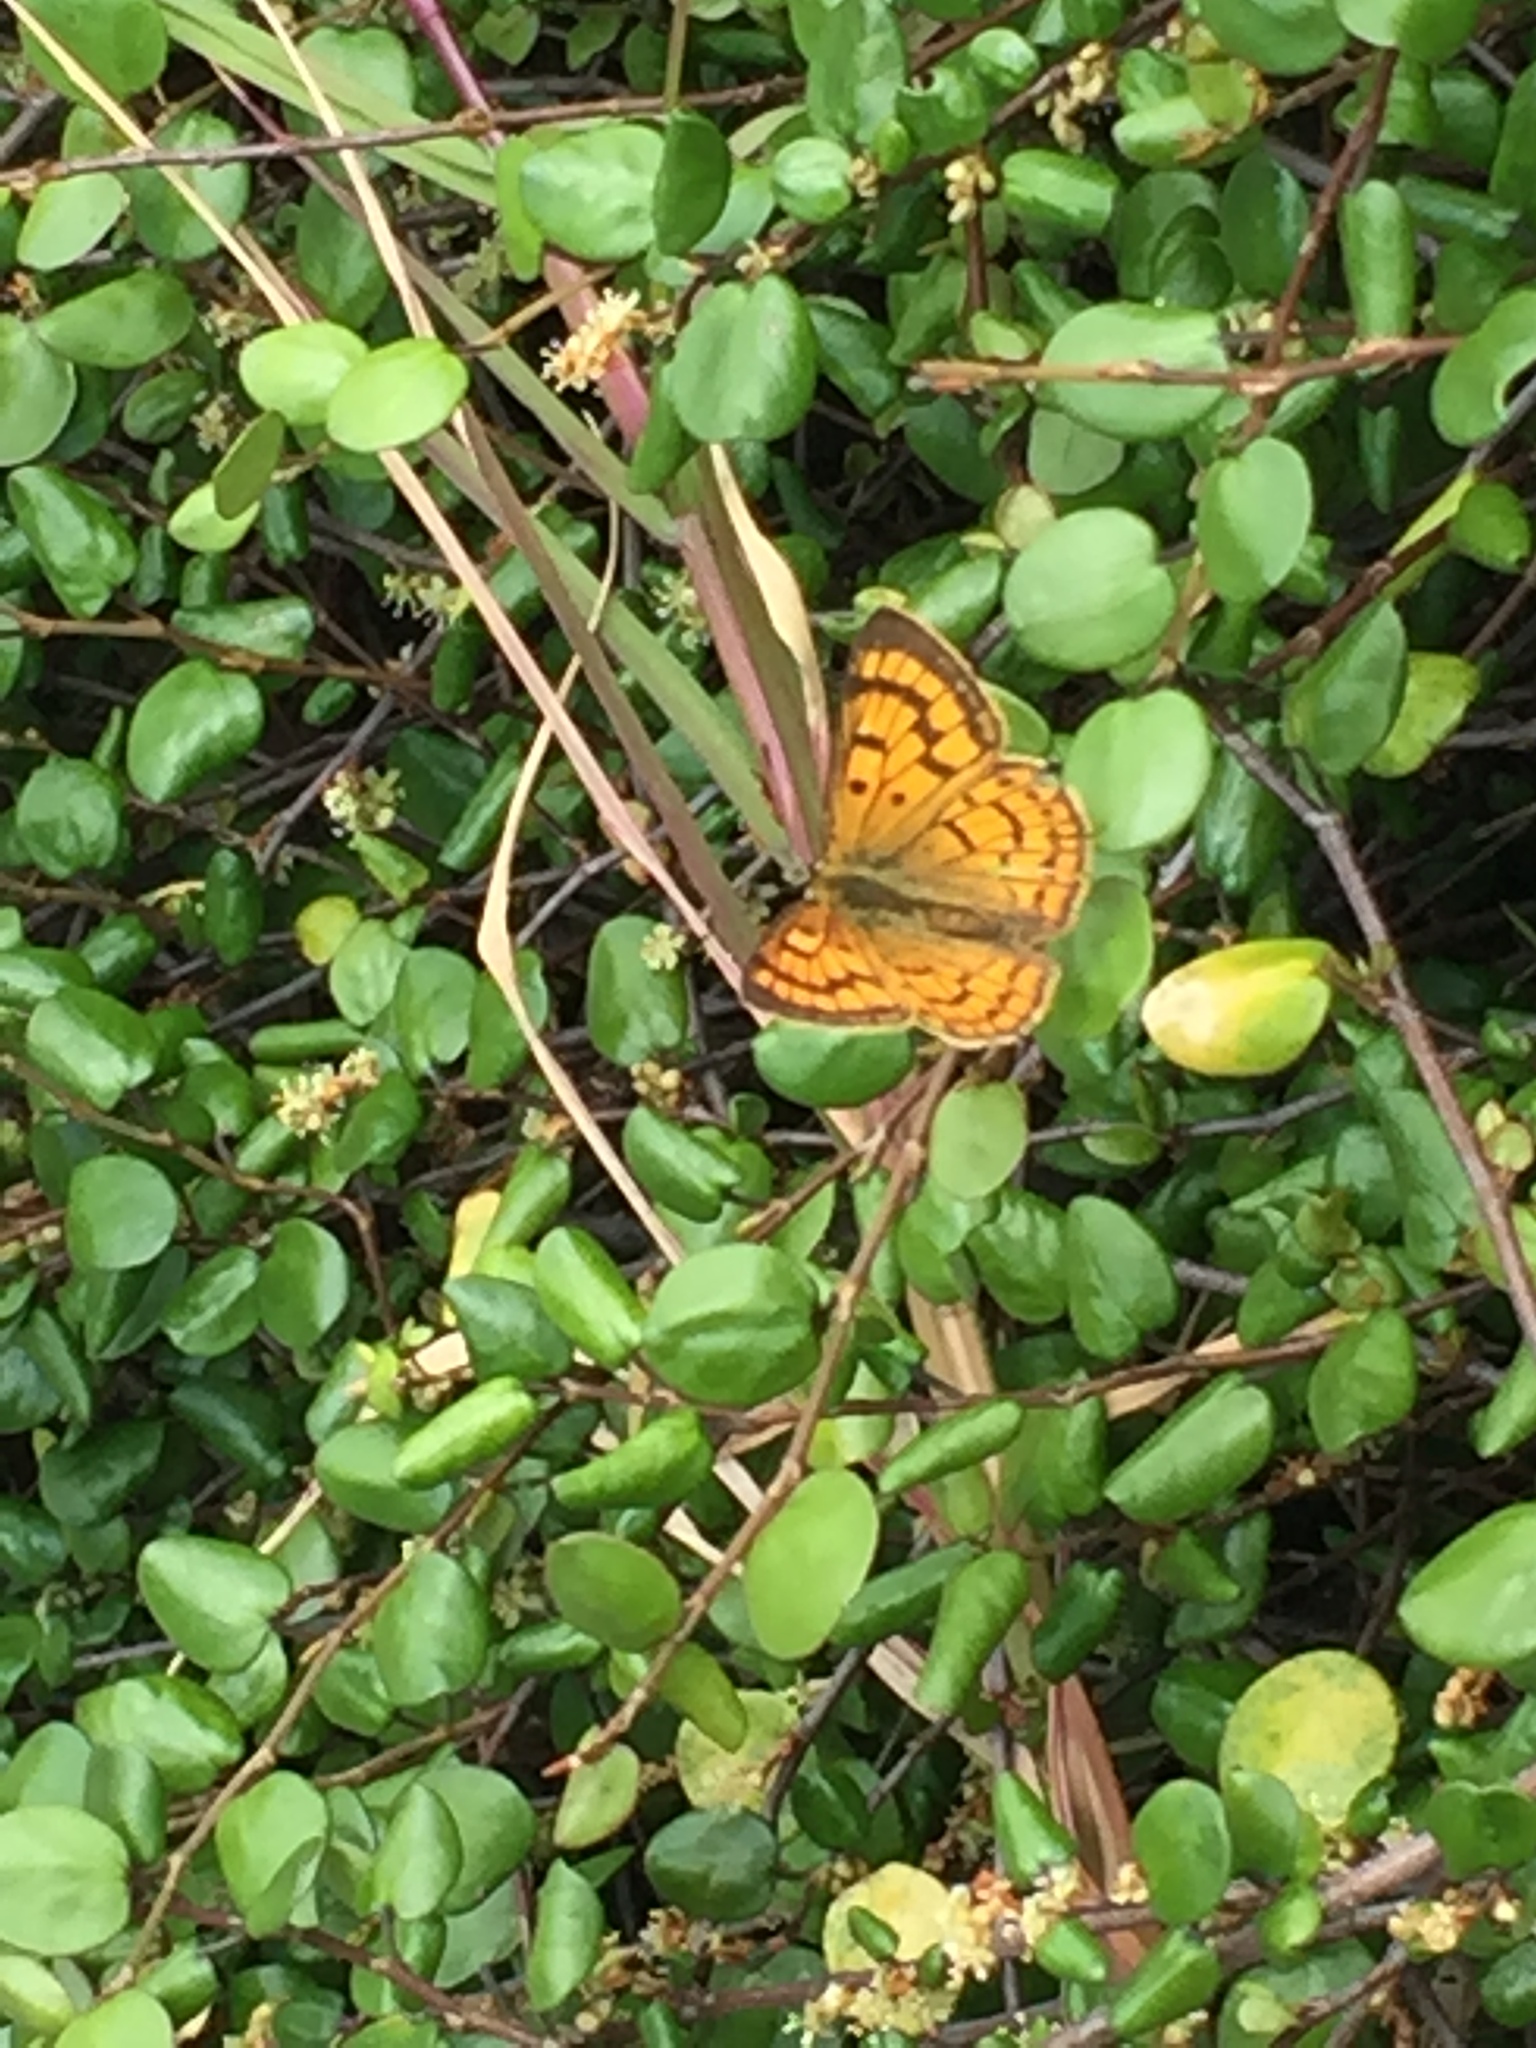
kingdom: Animalia
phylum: Arthropoda
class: Insecta
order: Lepidoptera
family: Lycaenidae
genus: Lycaena
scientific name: Lycaena salustius
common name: North island coastal copper
